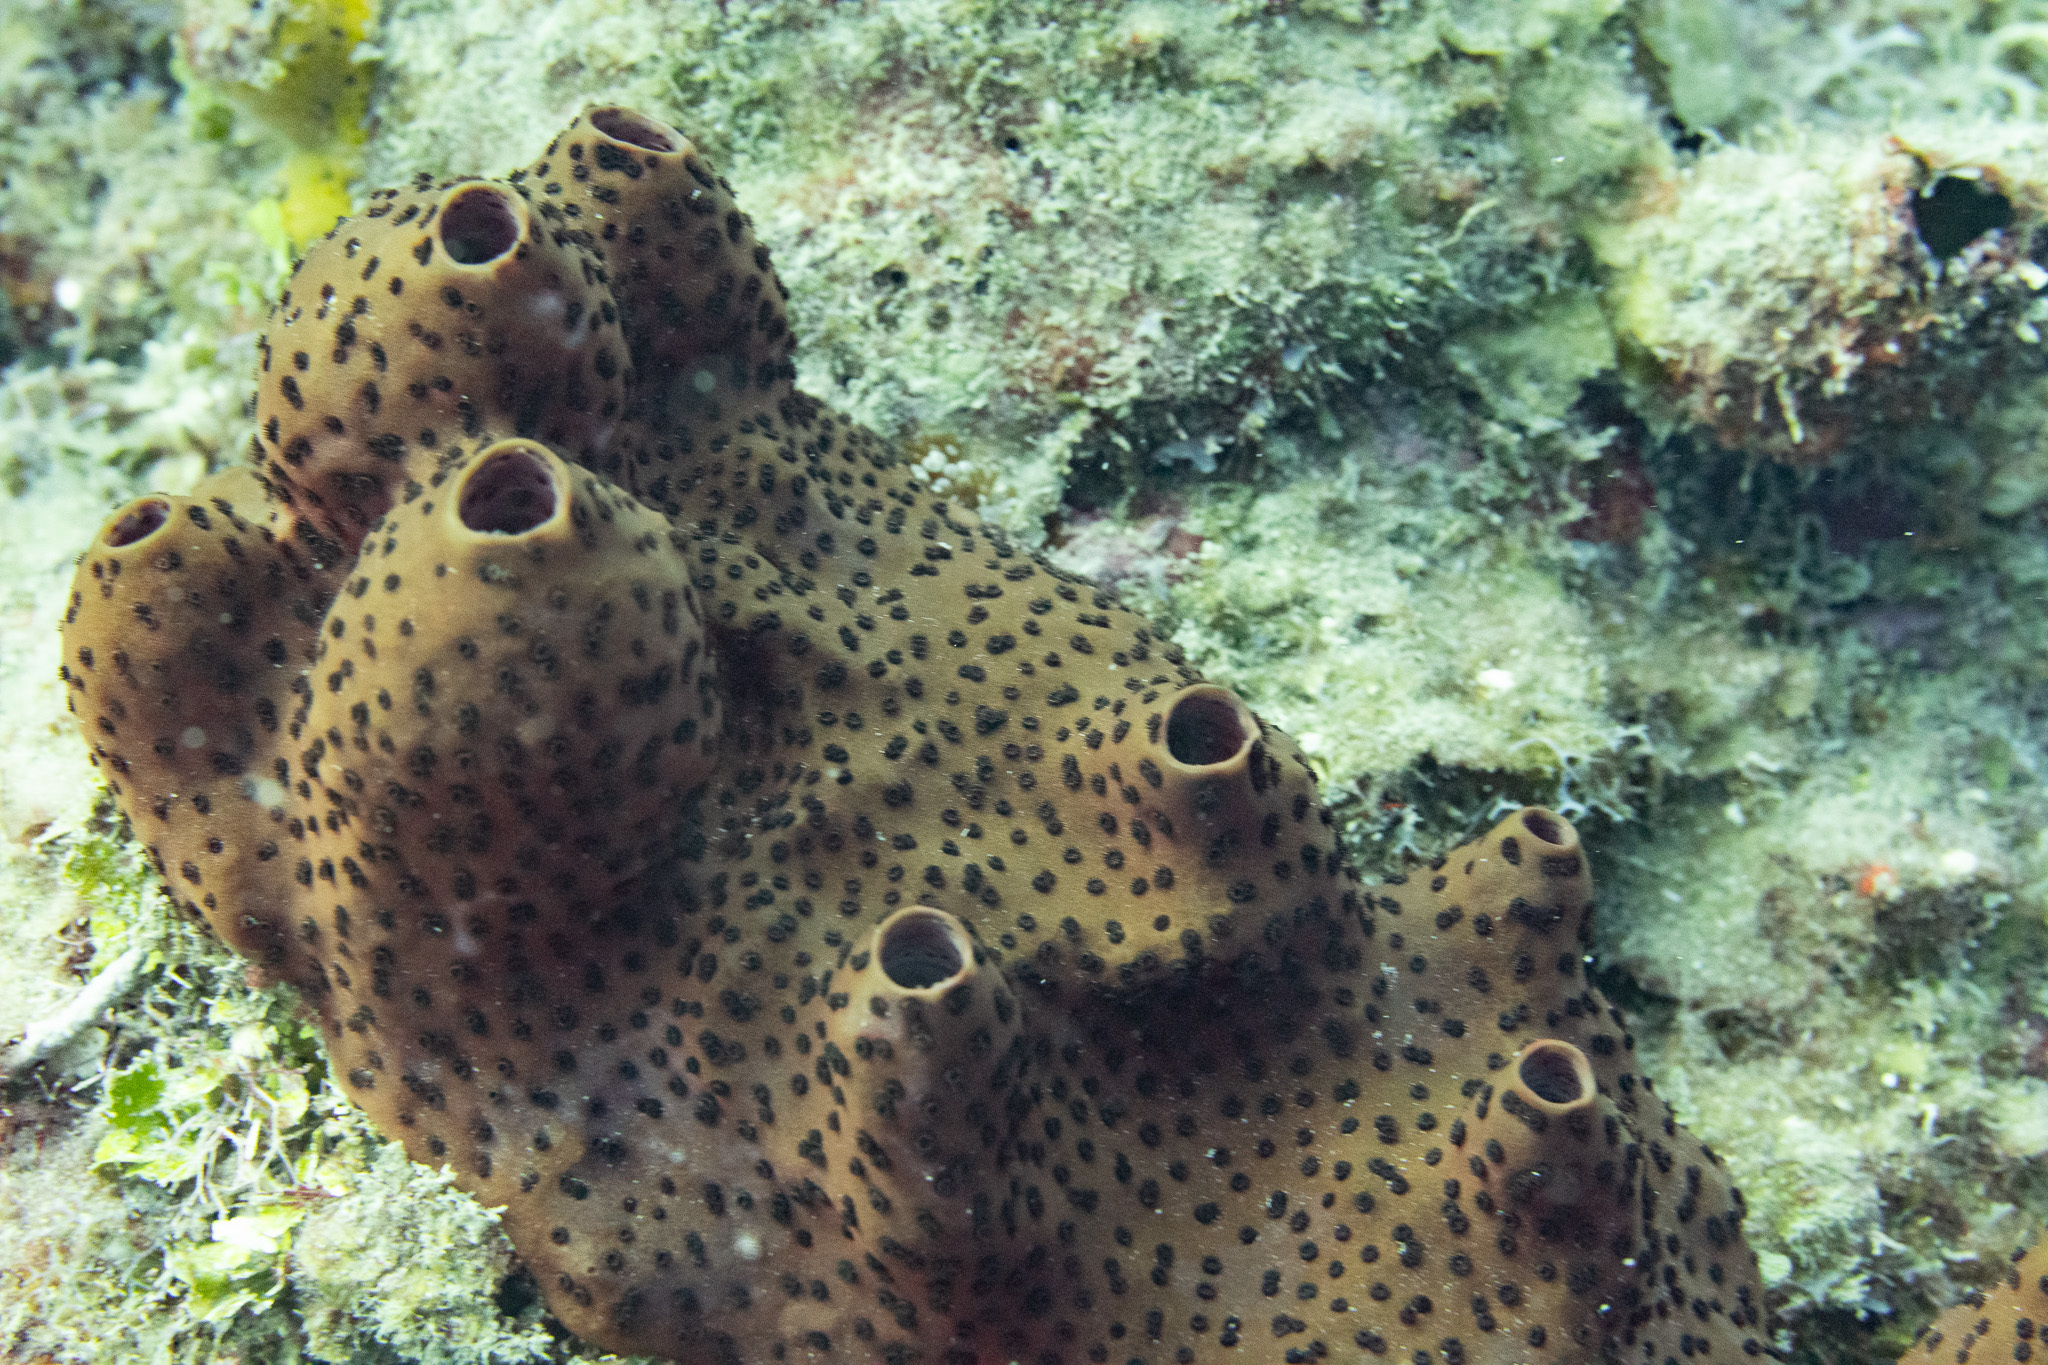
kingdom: Animalia
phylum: Porifera
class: Demospongiae
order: Scopalinida
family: Scopalinidae
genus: Svenzea
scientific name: Svenzea zeai
